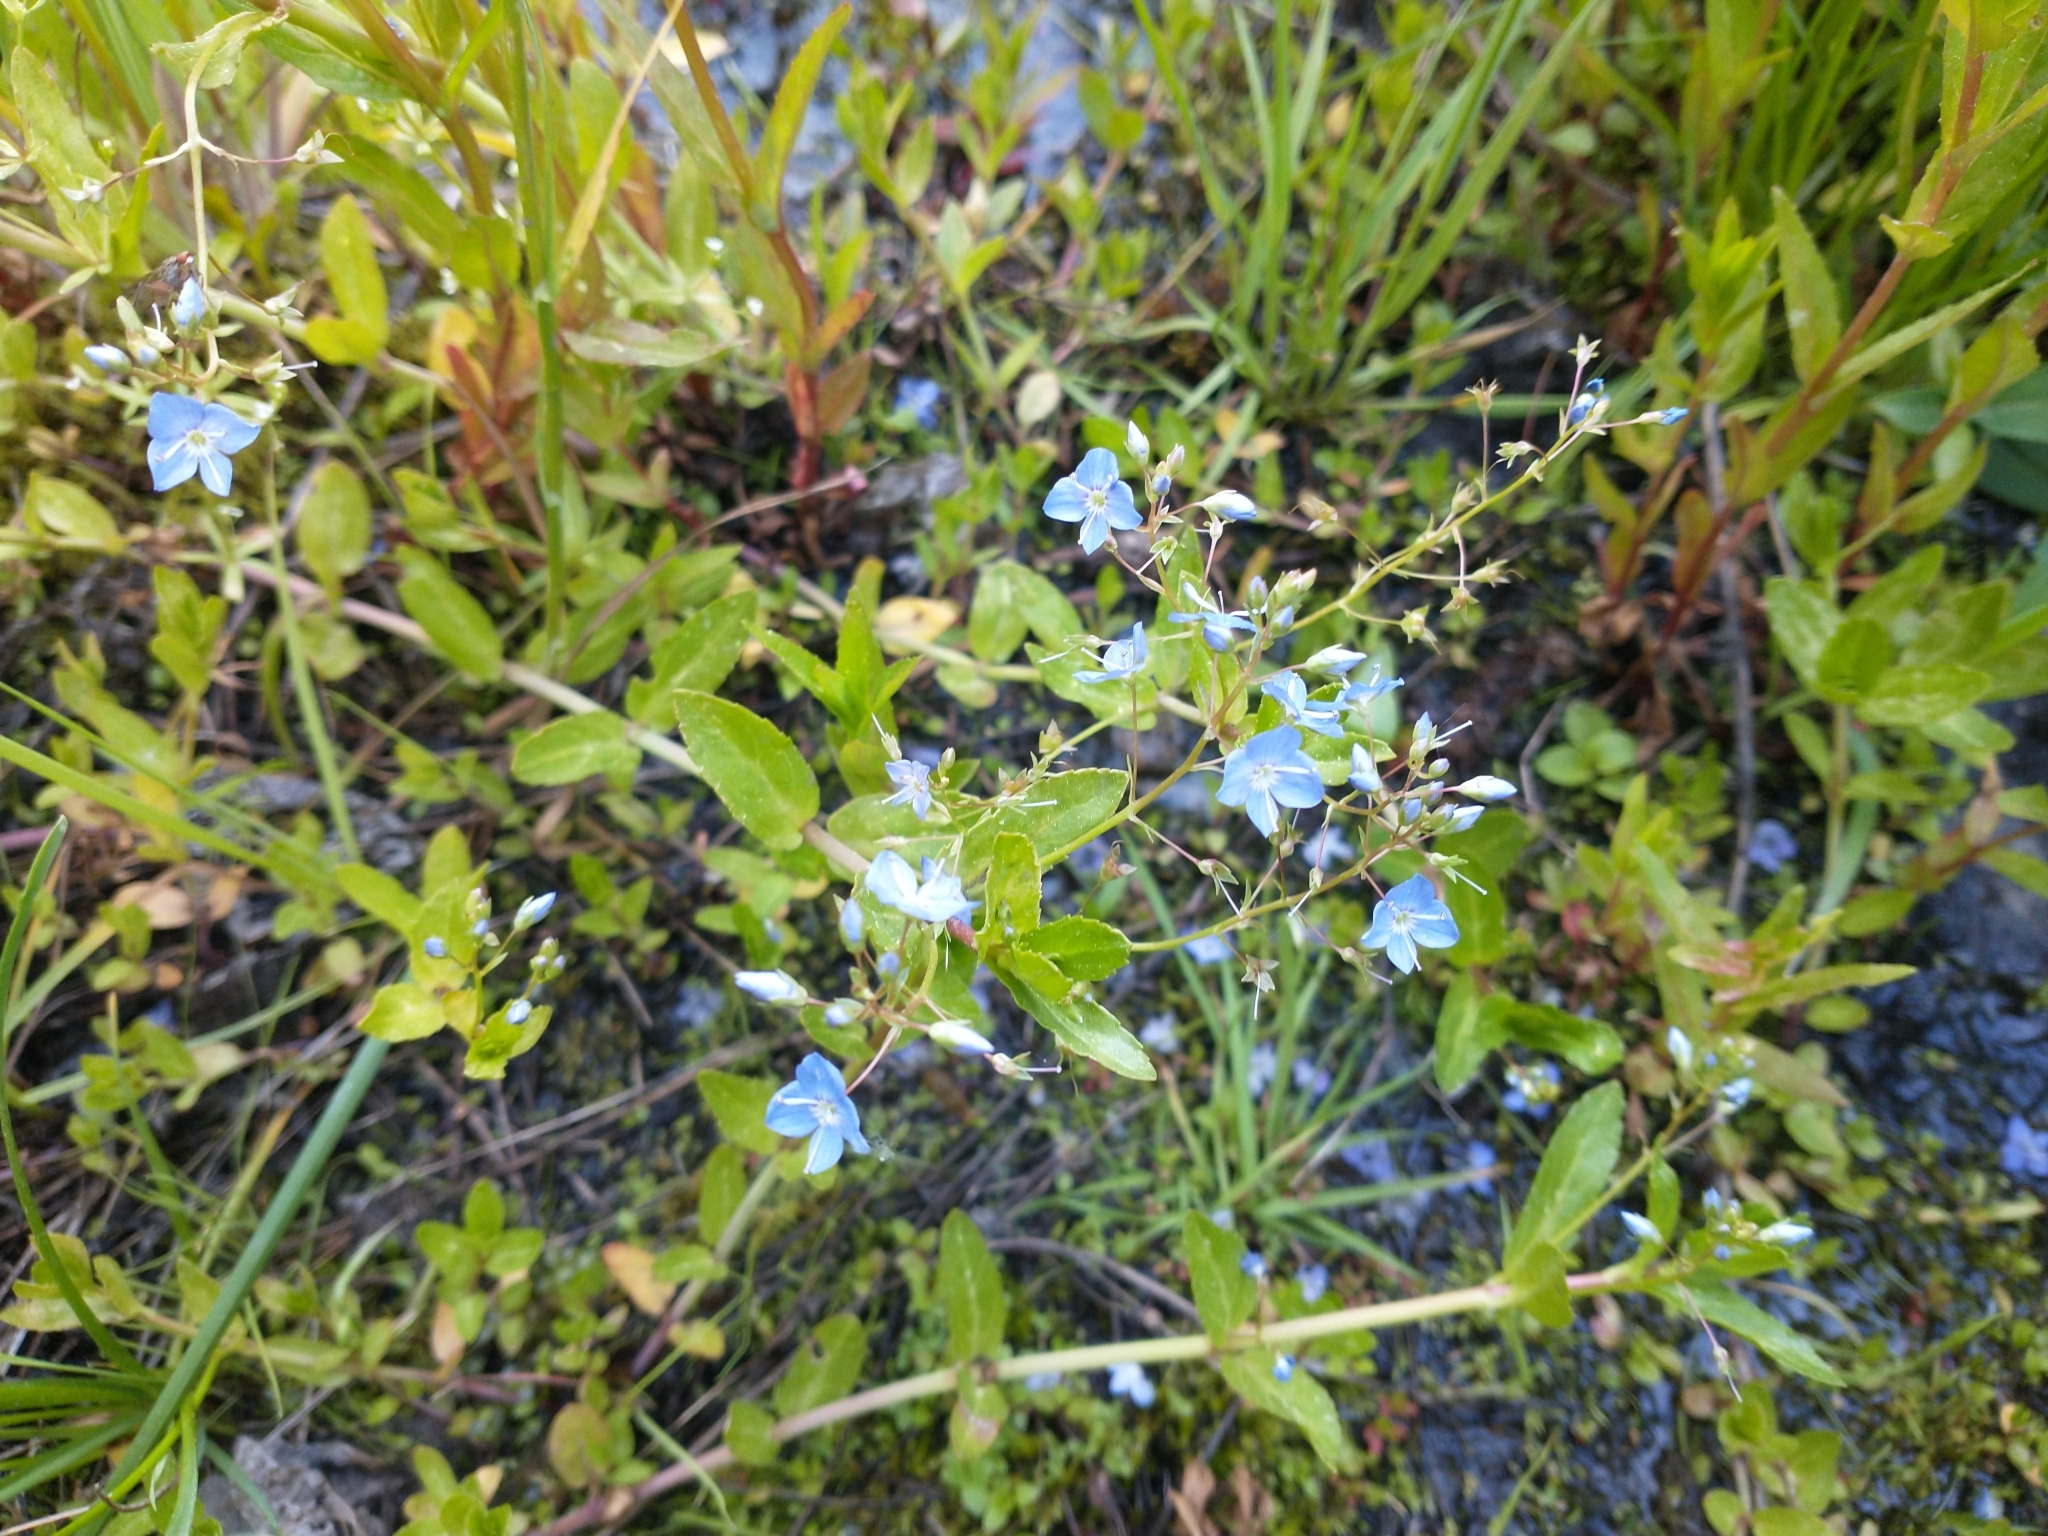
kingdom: Plantae
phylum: Tracheophyta
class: Magnoliopsida
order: Lamiales
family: Plantaginaceae
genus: Veronica
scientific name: Veronica americana
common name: American brooklime
